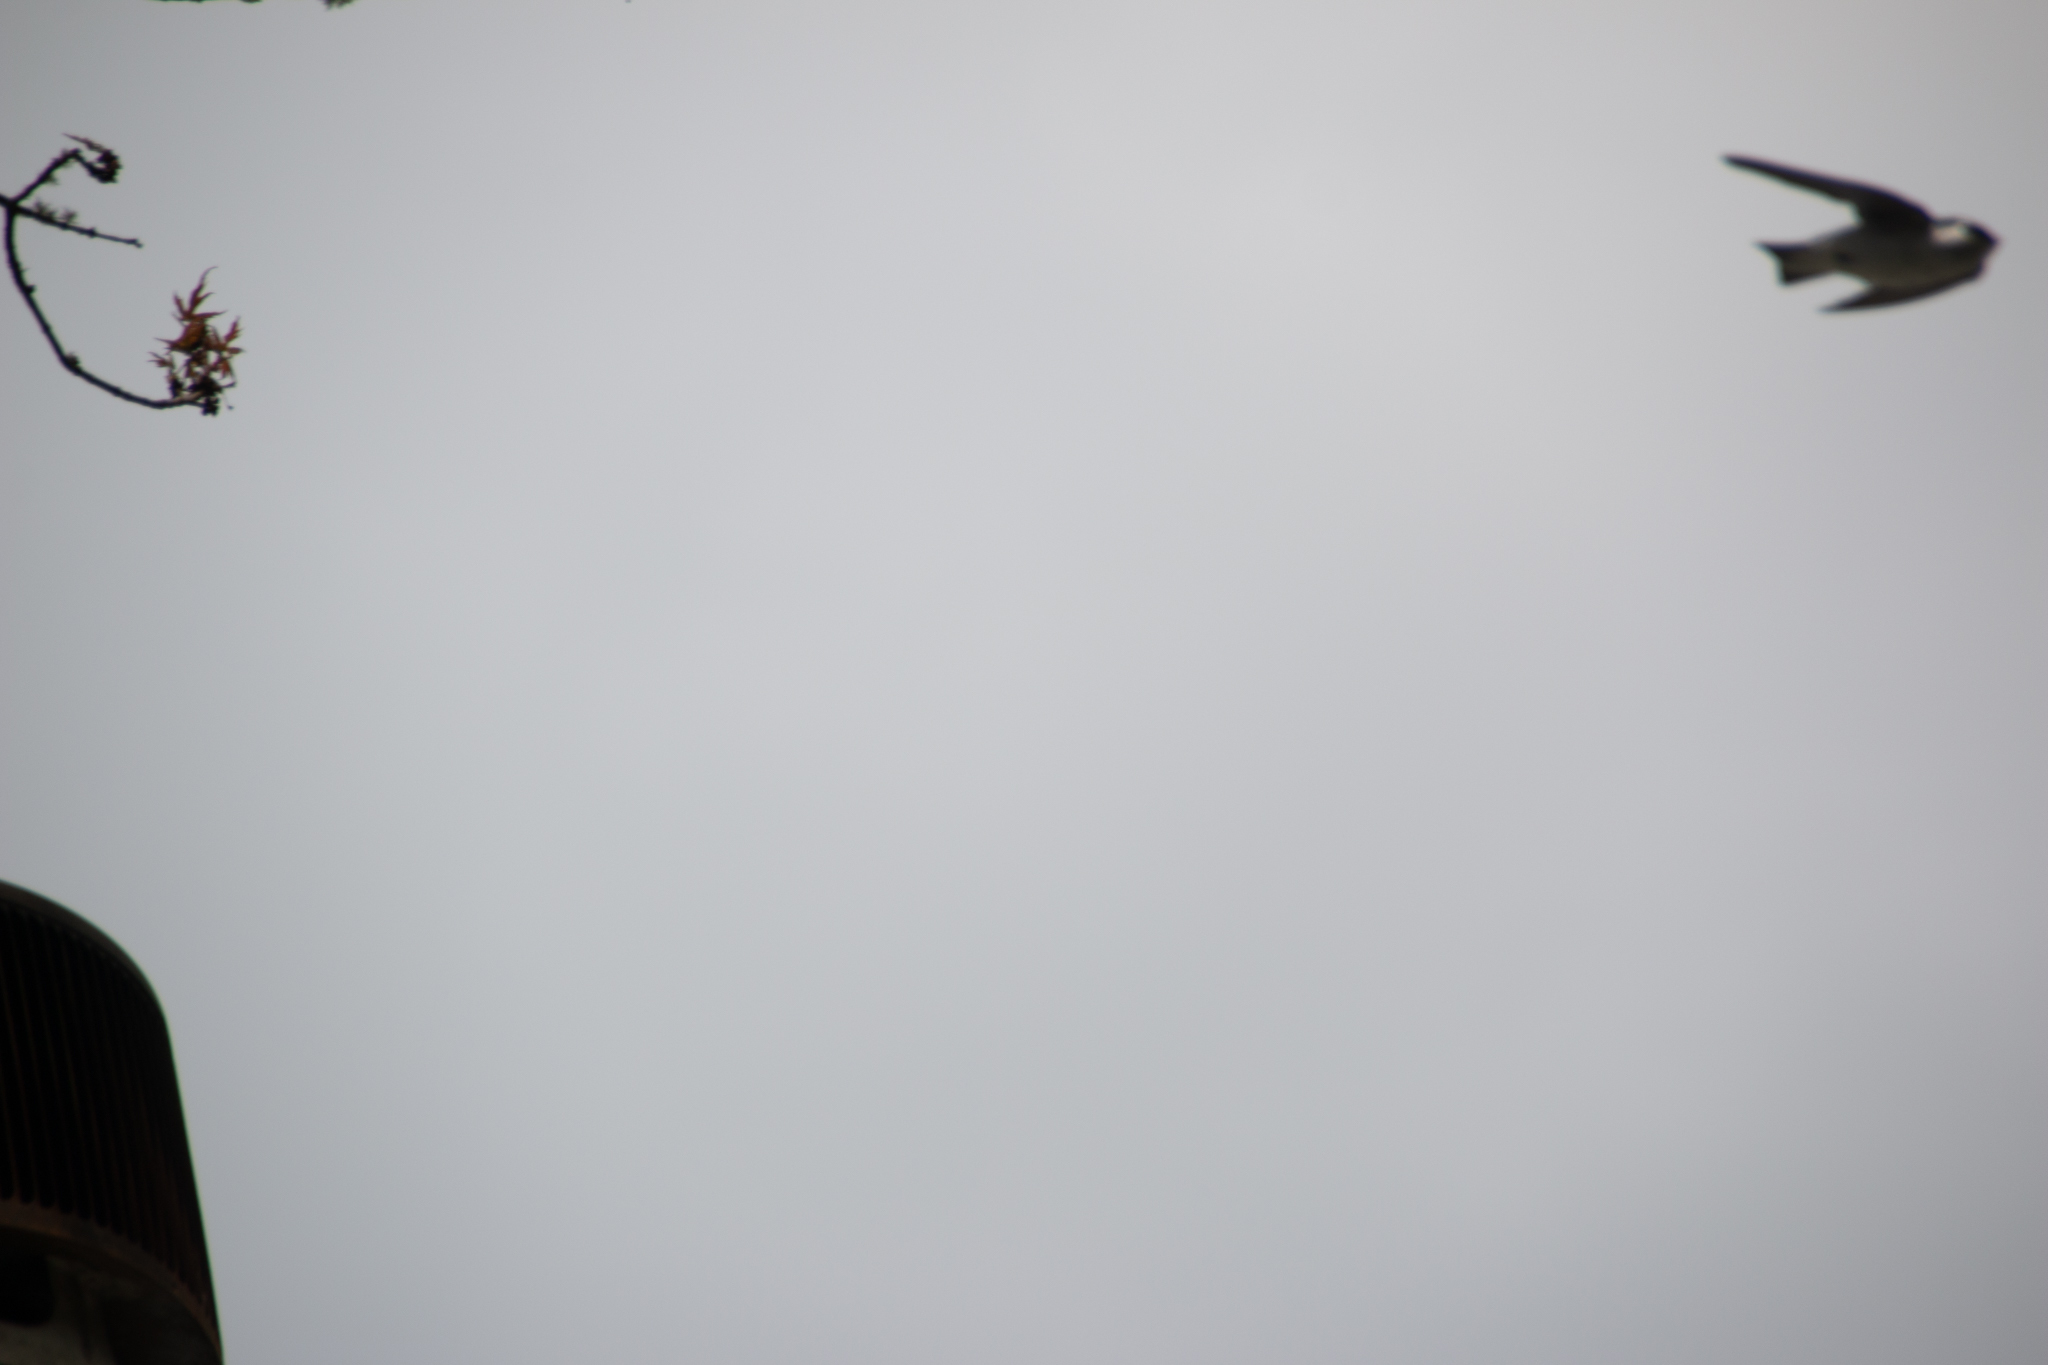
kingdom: Animalia
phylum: Chordata
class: Aves
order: Passeriformes
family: Hirundinidae
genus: Tachycineta
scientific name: Tachycineta thalassina
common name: Violet-green swallow
